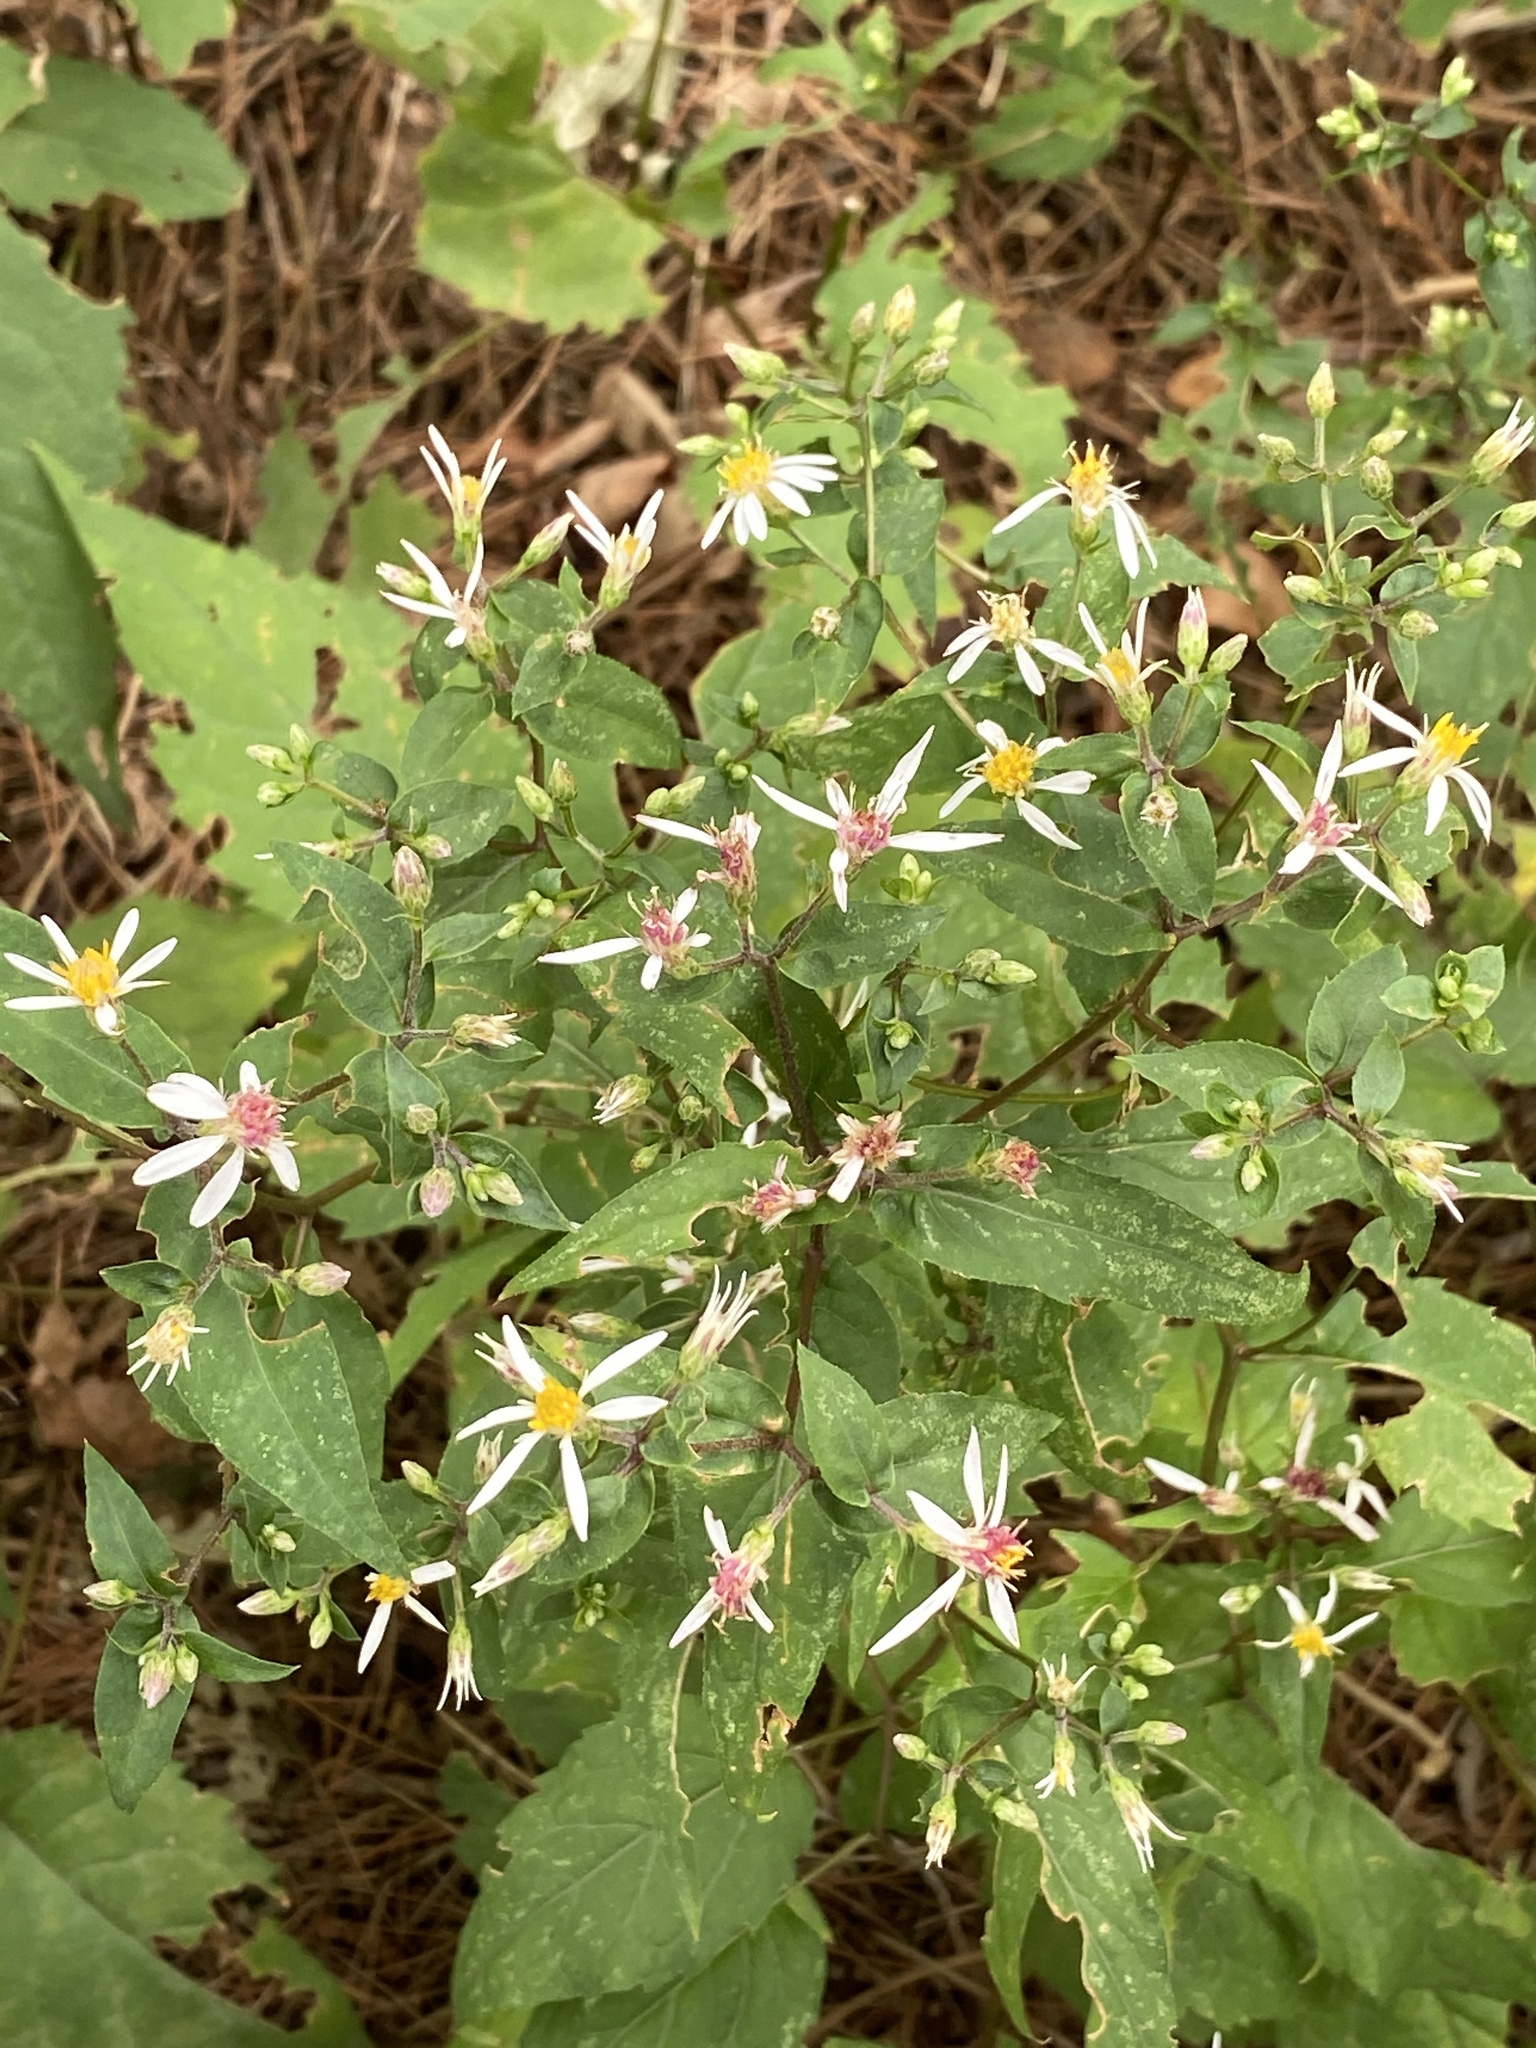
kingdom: Plantae
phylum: Tracheophyta
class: Magnoliopsida
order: Asterales
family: Asteraceae
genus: Eurybia
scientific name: Eurybia divaricata
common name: White wood aster
